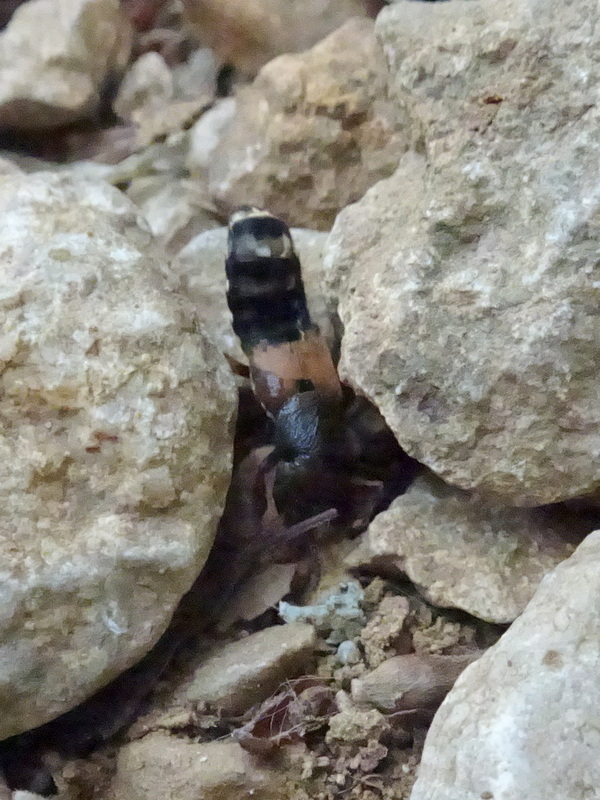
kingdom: Animalia
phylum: Arthropoda
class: Insecta
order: Coleoptera
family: Staphylinidae
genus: Platydracus
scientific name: Platydracus flavopunctatus
